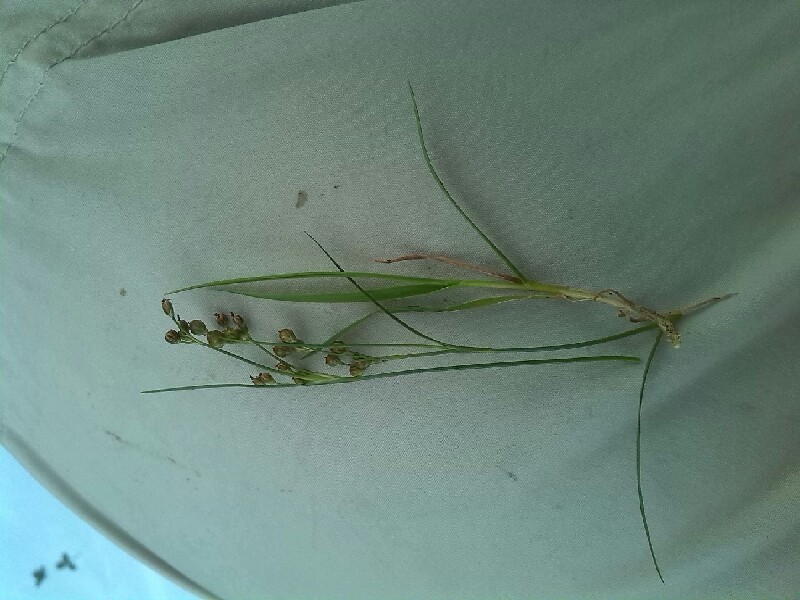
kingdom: Plantae
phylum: Tracheophyta
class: Liliopsida
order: Poales
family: Juncaceae
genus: Juncus
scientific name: Juncus compressus
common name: Round-fruited rush
